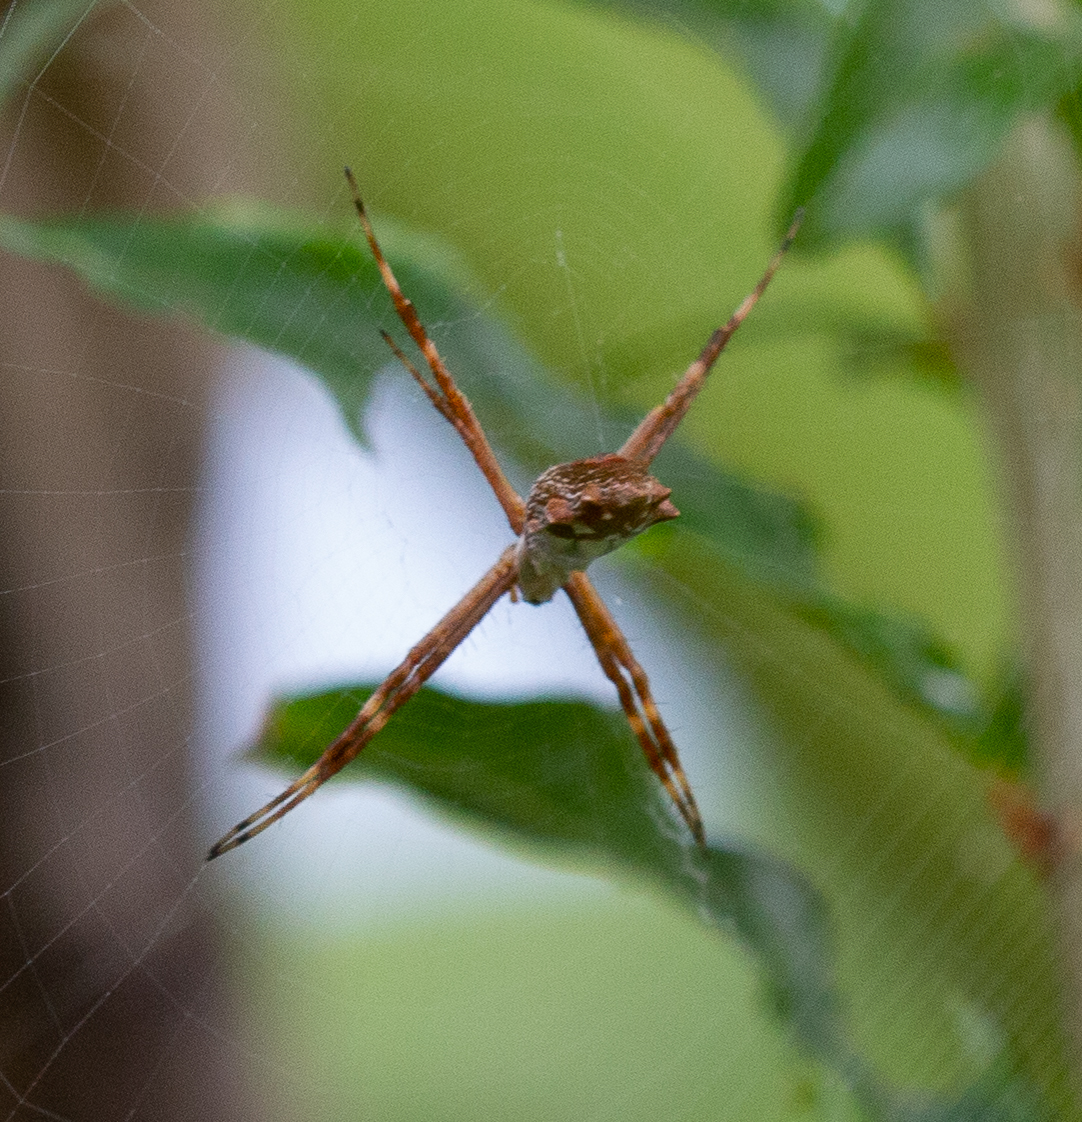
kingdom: Animalia
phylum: Arthropoda
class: Arachnida
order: Araneae
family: Araneidae
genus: Argiope
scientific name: Argiope argentata
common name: Orb weavers
